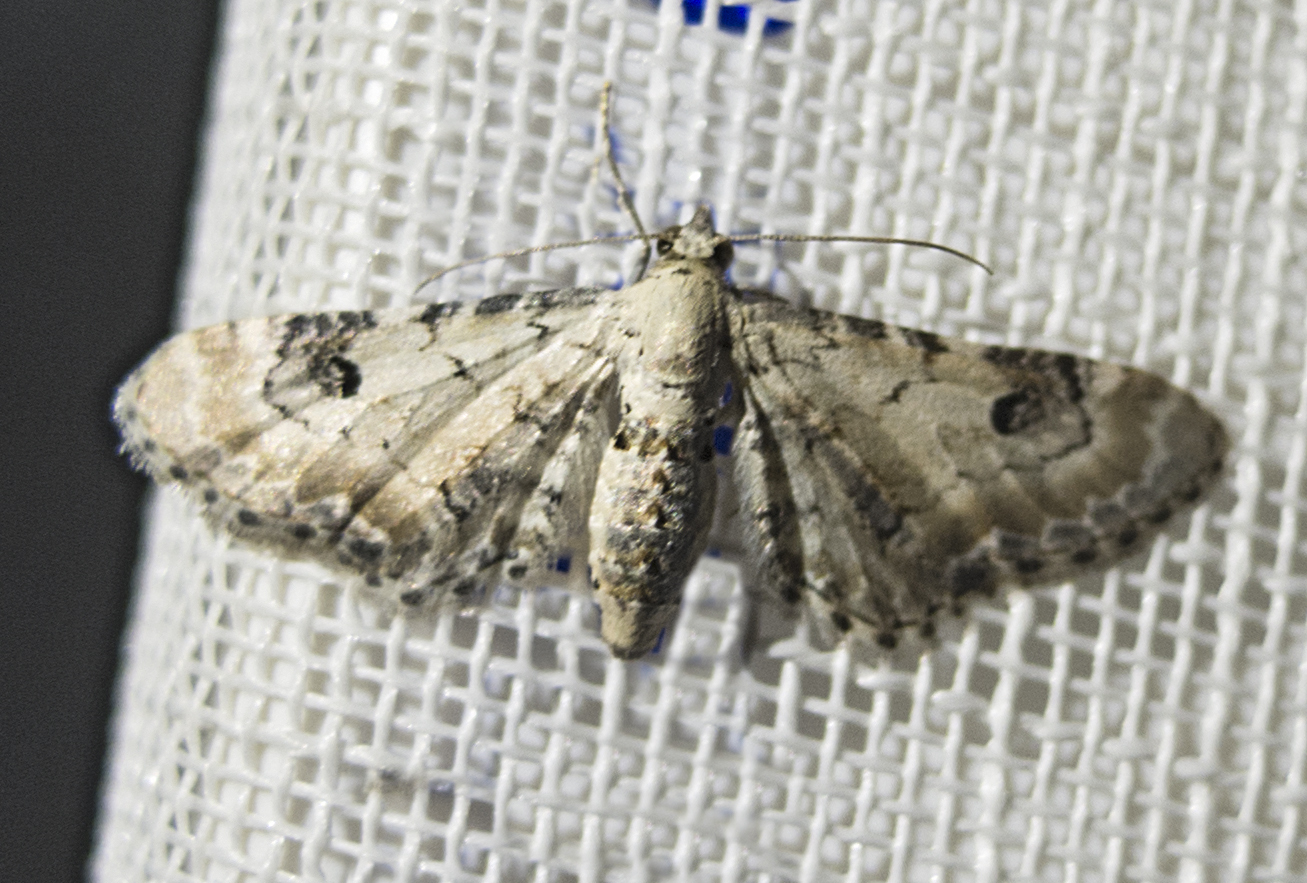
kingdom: Animalia
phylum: Arthropoda
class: Insecta
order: Lepidoptera
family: Geometridae
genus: Eupithecia
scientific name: Eupithecia centaureata
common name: Lime-speck pug
